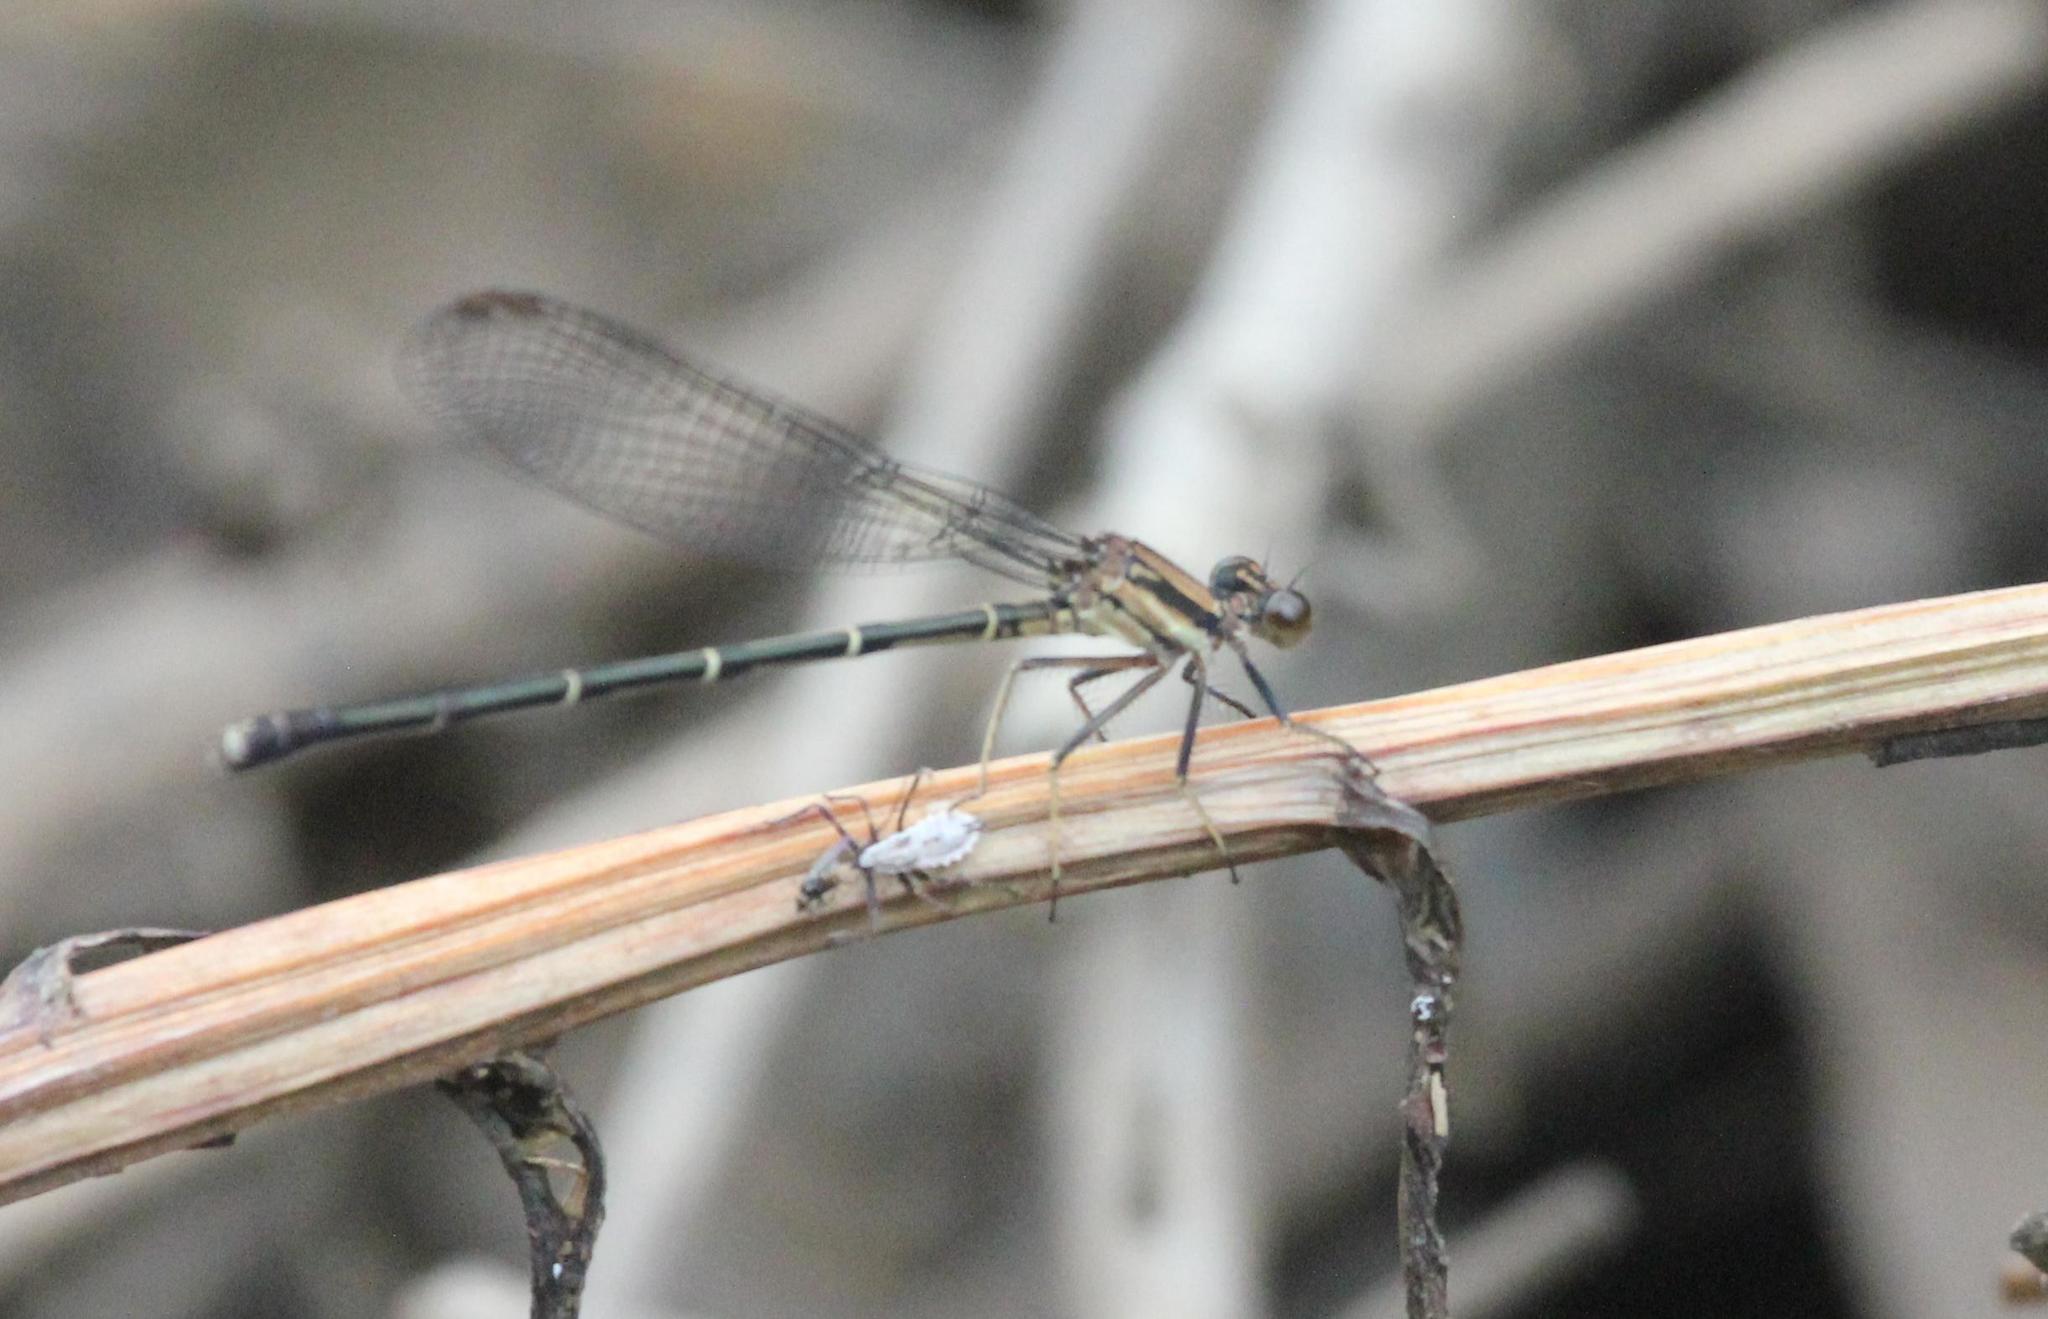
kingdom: Animalia
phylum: Arthropoda
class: Insecta
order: Odonata
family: Coenagrionidae
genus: Argia
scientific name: Argia tibialis
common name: Blue-tipped dancer
